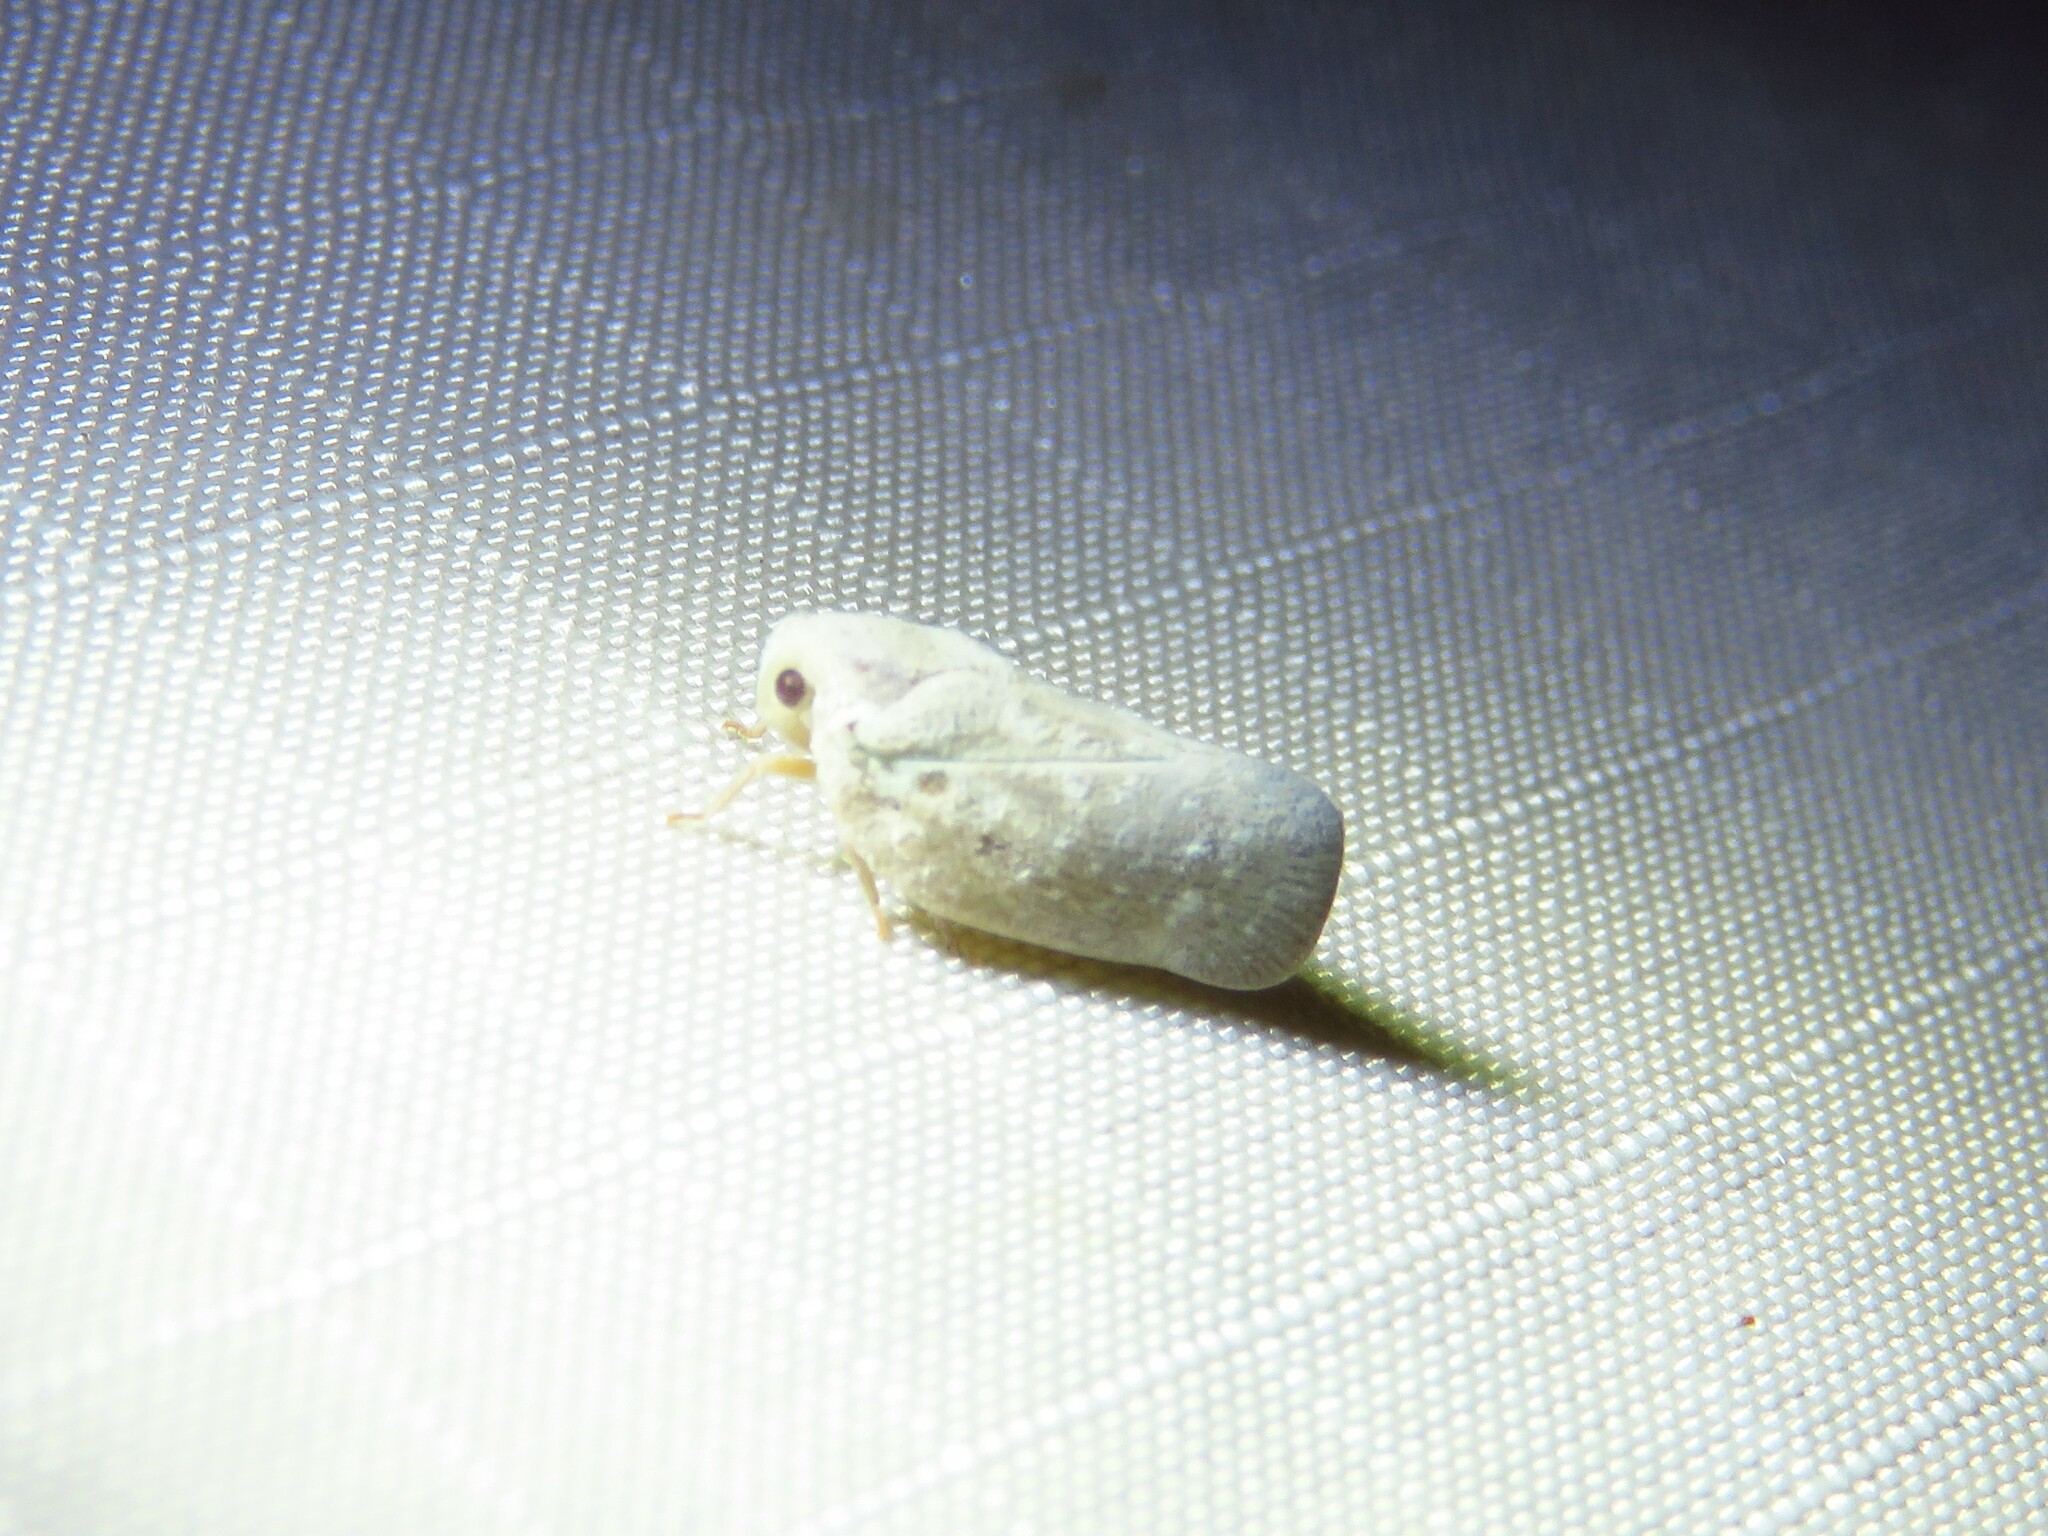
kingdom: Animalia
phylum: Arthropoda
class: Insecta
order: Hemiptera
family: Flatidae
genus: Metcalfa
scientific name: Metcalfa pruinosa
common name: Citrus flatid planthopper
